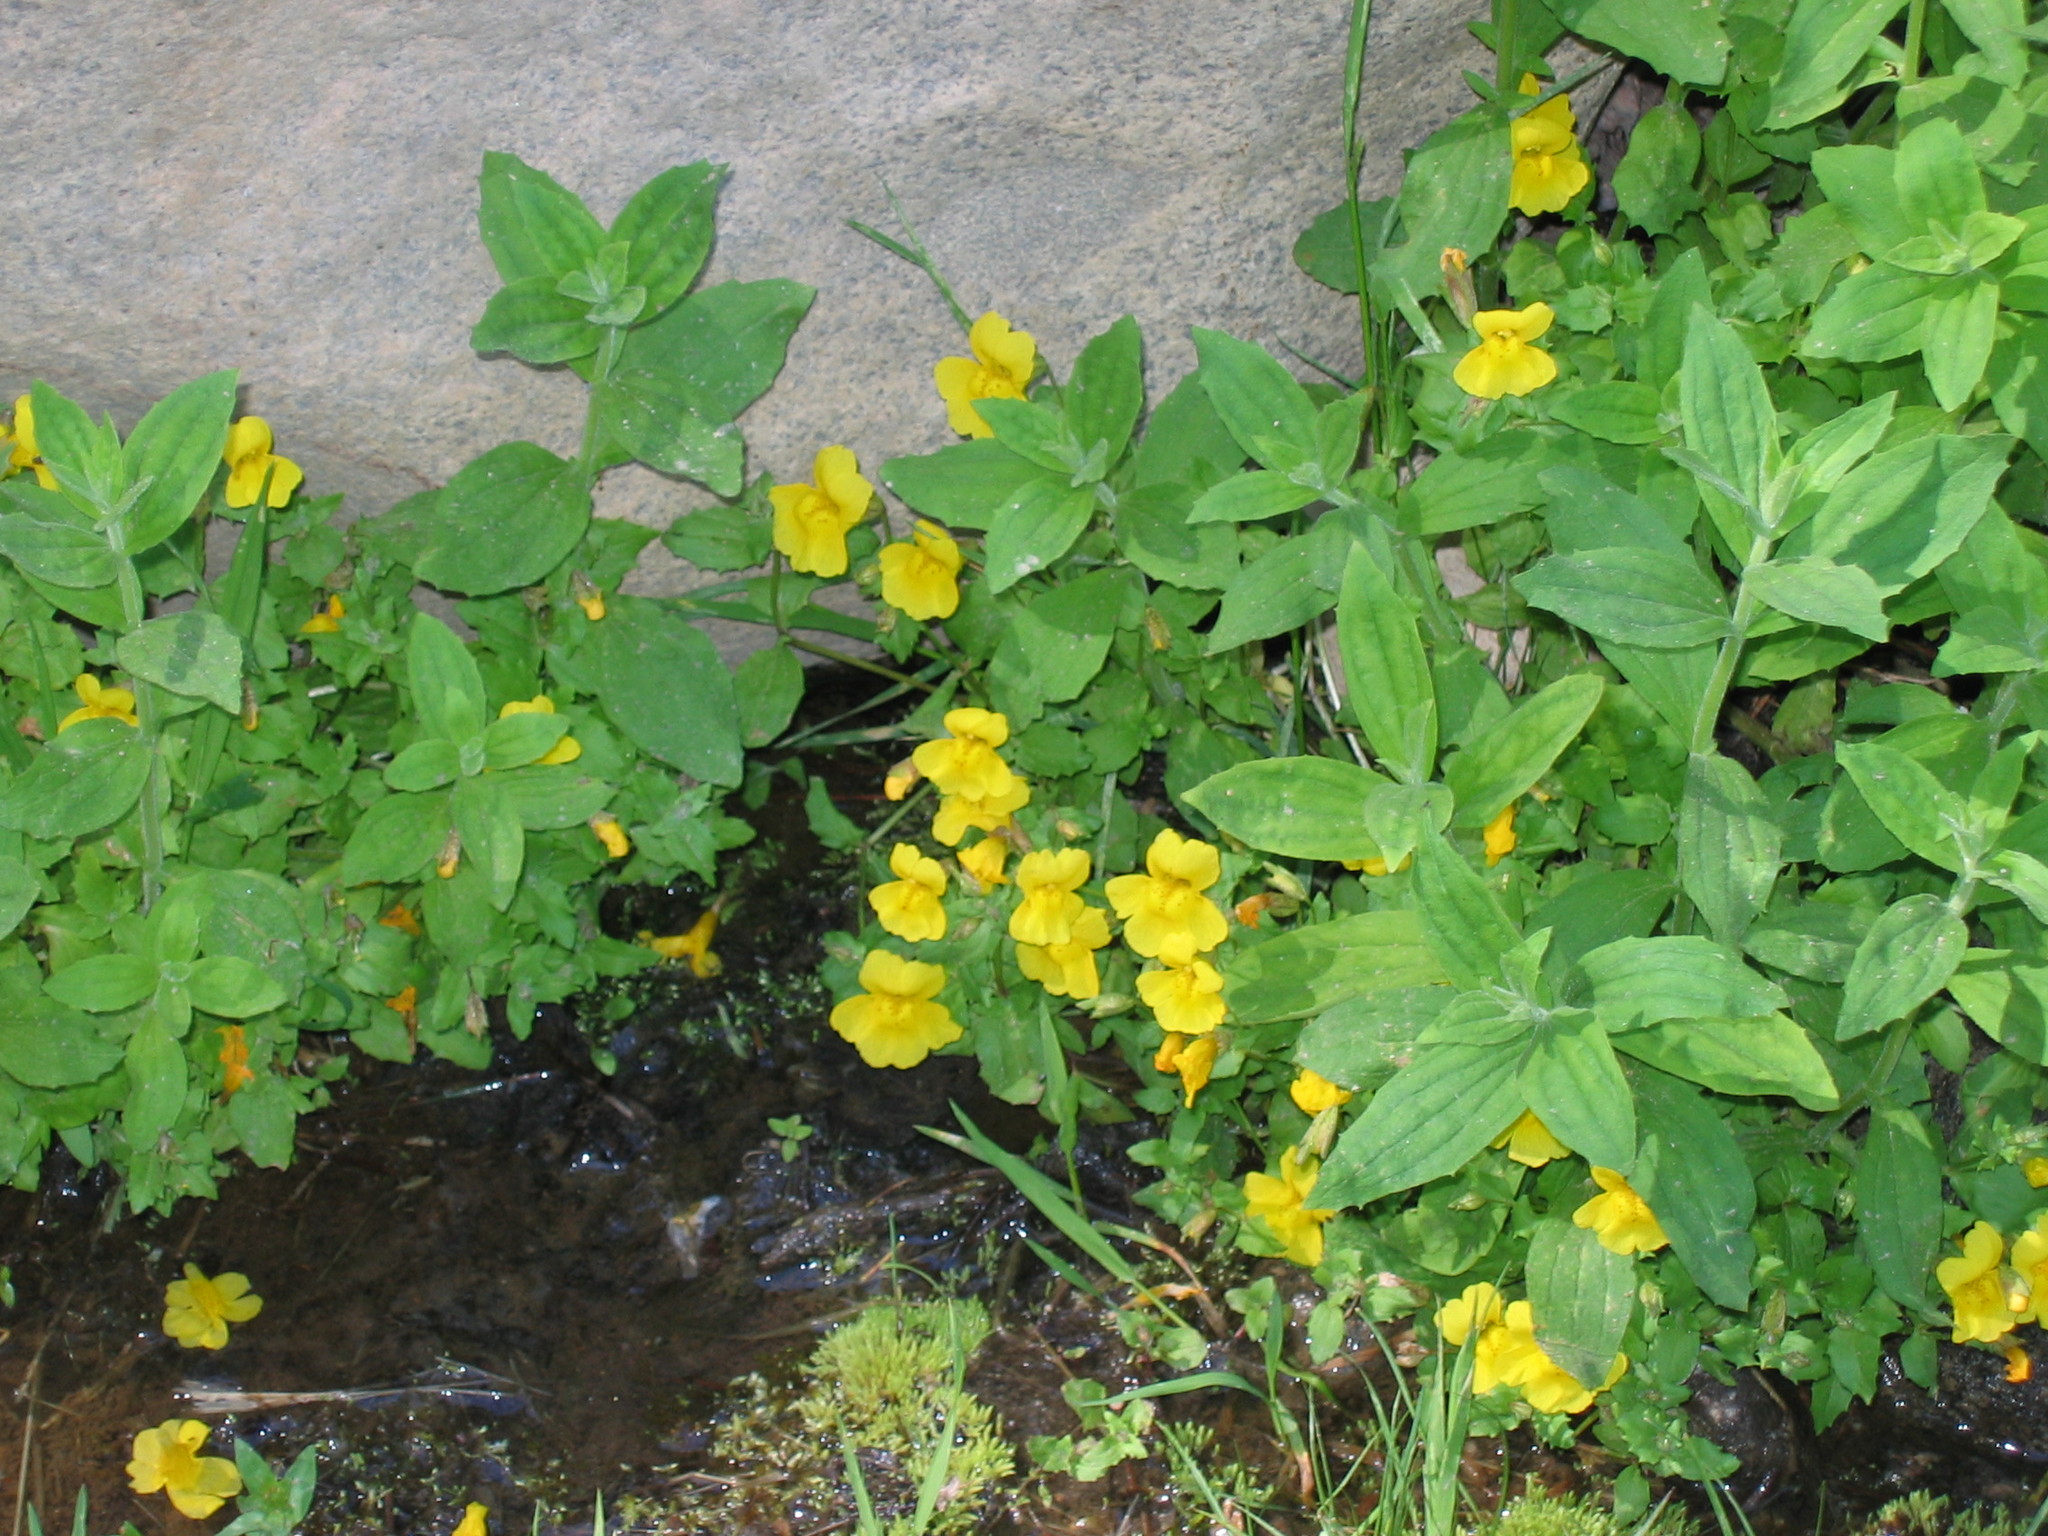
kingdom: Plantae
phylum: Tracheophyta
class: Magnoliopsida
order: Lamiales
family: Phrymaceae
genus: Erythranthe
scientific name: Erythranthe guttata
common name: Monkeyflower
